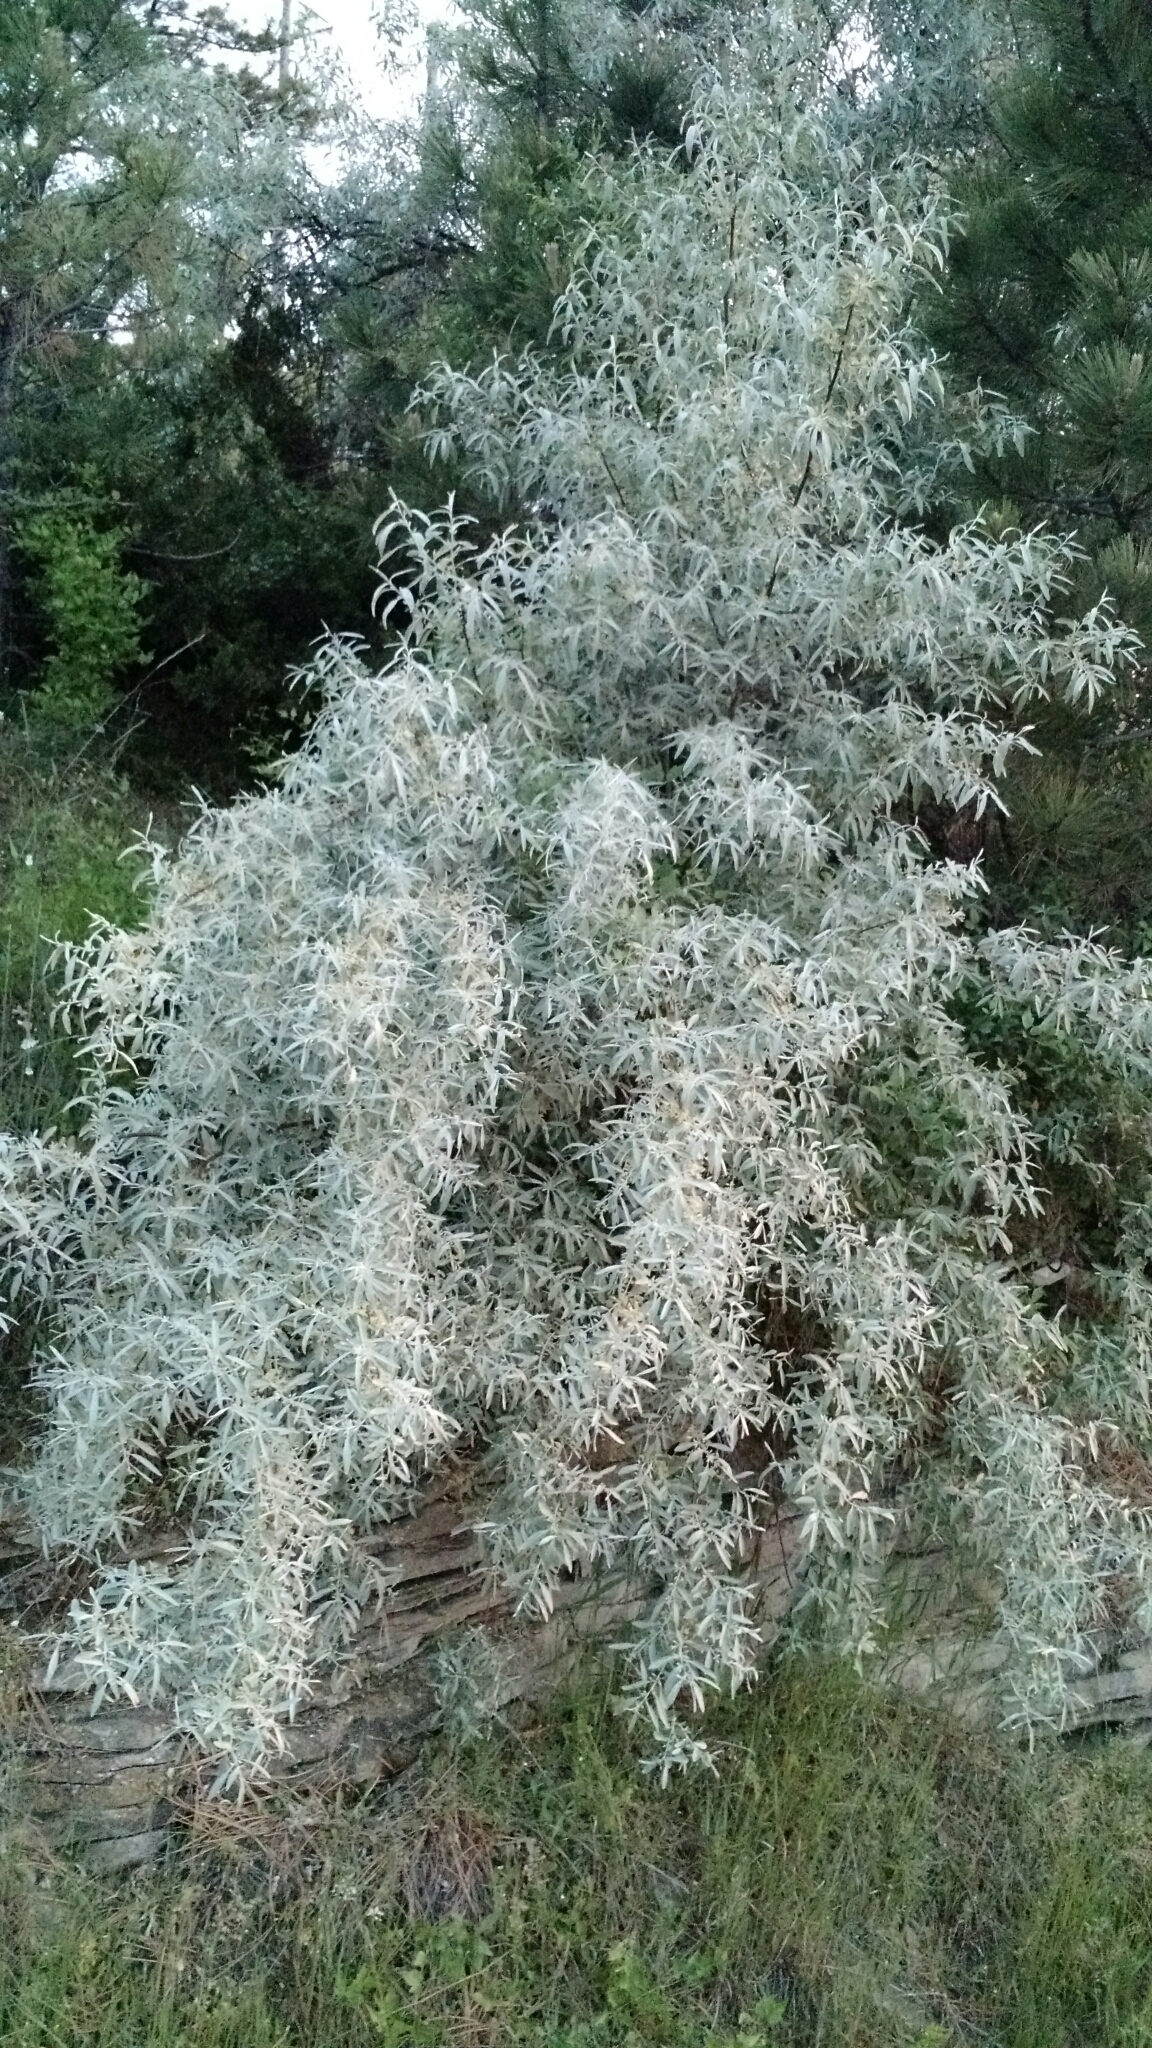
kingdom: Plantae
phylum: Tracheophyta
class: Magnoliopsida
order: Rosales
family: Elaeagnaceae
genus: Elaeagnus
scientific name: Elaeagnus angustifolia
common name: Russian olive
